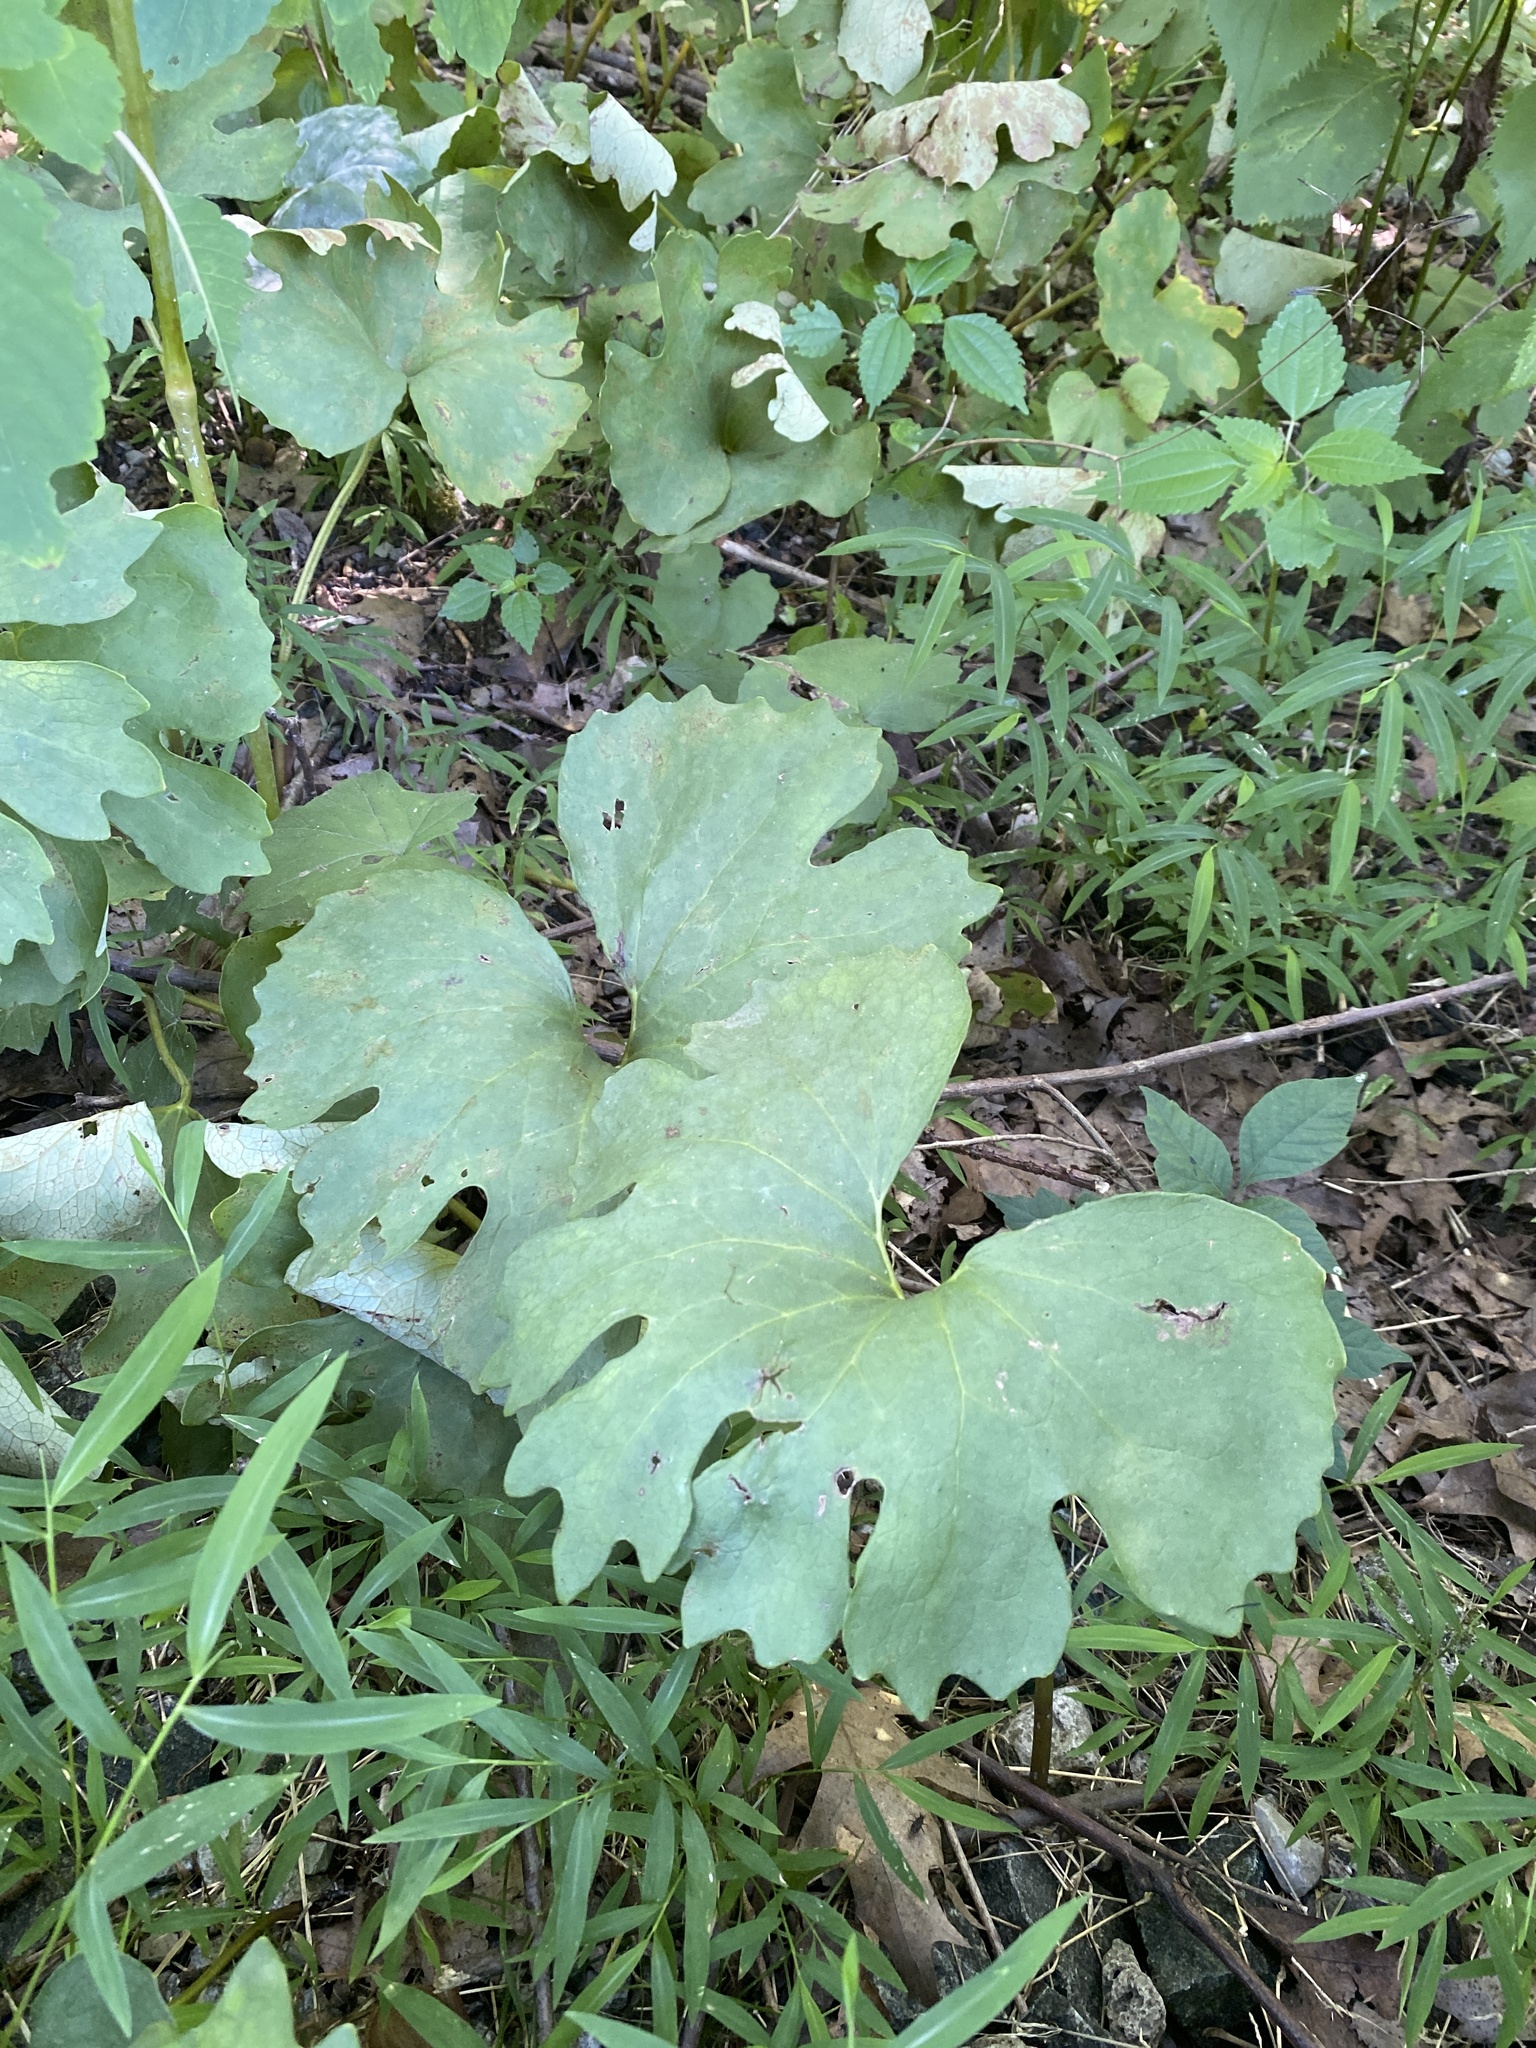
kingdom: Plantae
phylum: Tracheophyta
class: Magnoliopsida
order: Ranunculales
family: Papaveraceae
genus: Sanguinaria
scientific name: Sanguinaria canadensis
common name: Bloodroot
